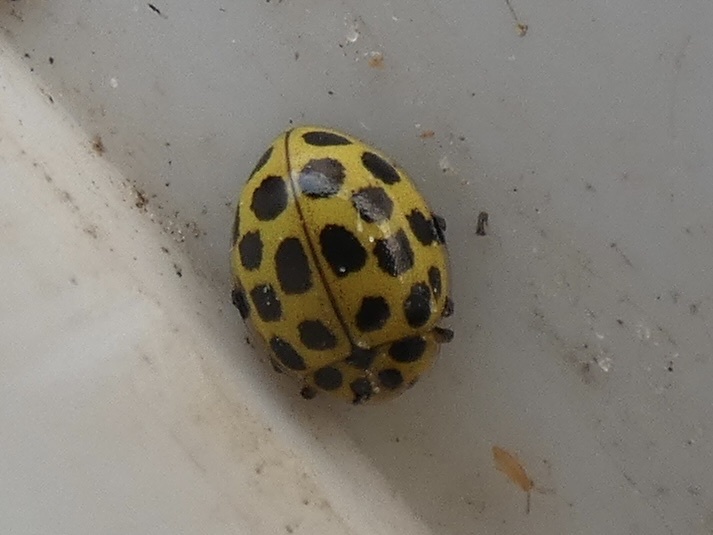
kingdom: Animalia
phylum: Arthropoda
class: Insecta
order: Coleoptera
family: Coccinellidae
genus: Psyllobora
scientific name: Psyllobora vigintiduopunctata
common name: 22-spot ladybird
